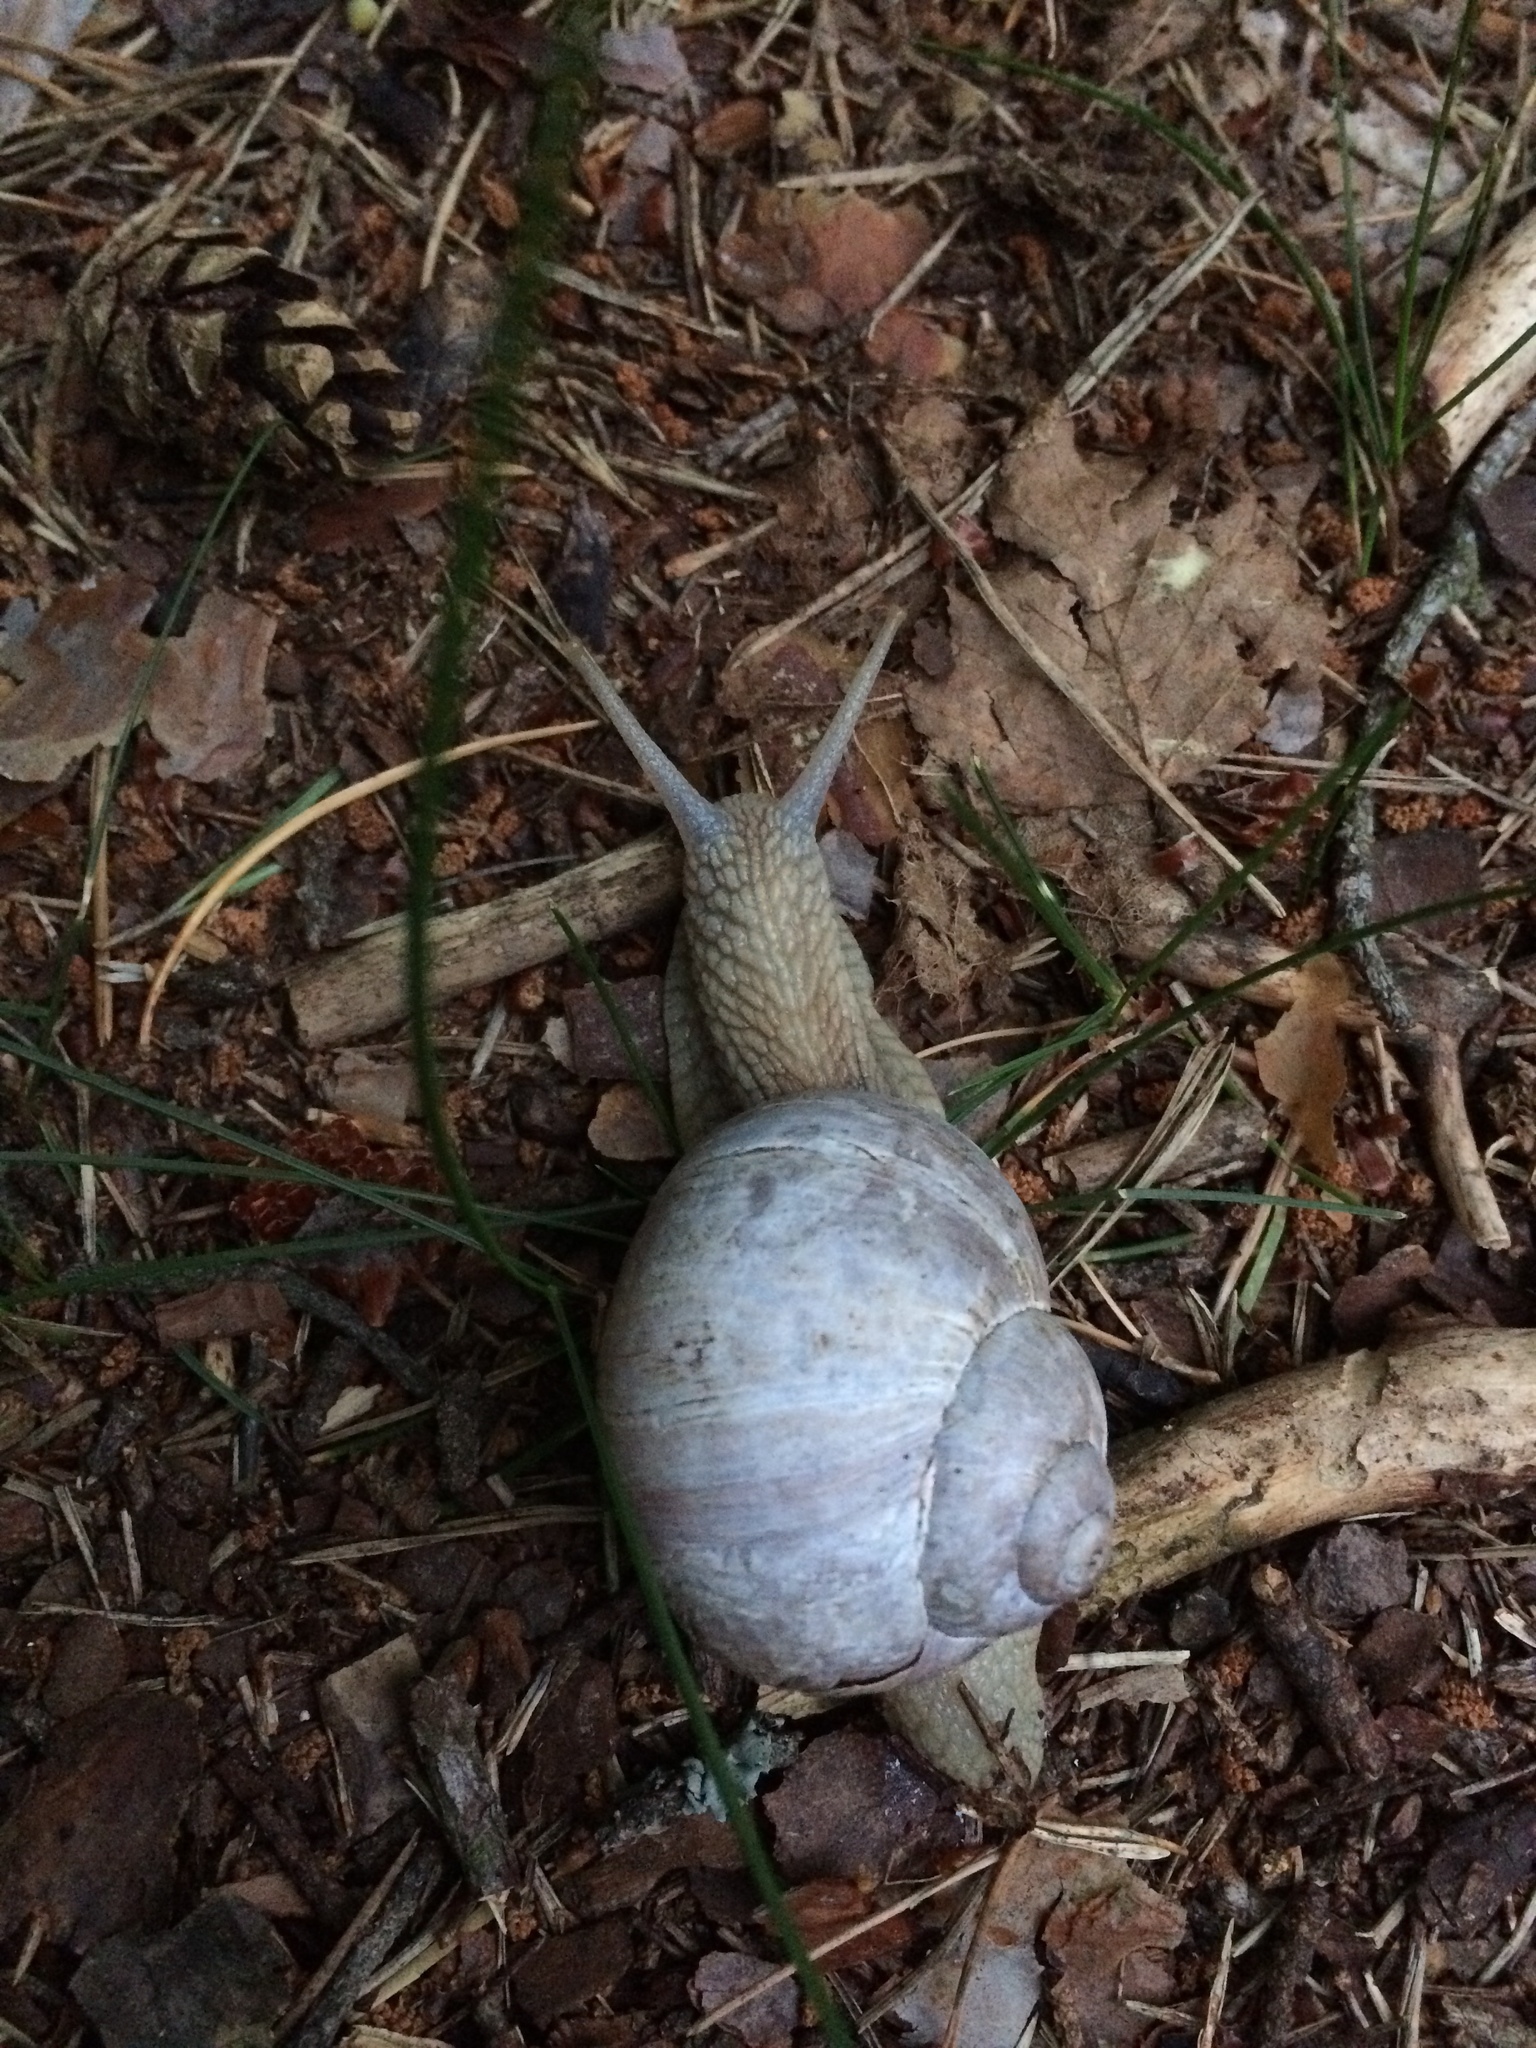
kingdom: Animalia
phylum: Mollusca
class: Gastropoda
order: Stylommatophora
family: Helicidae
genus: Helix
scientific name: Helix pomatia
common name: Roman snail
